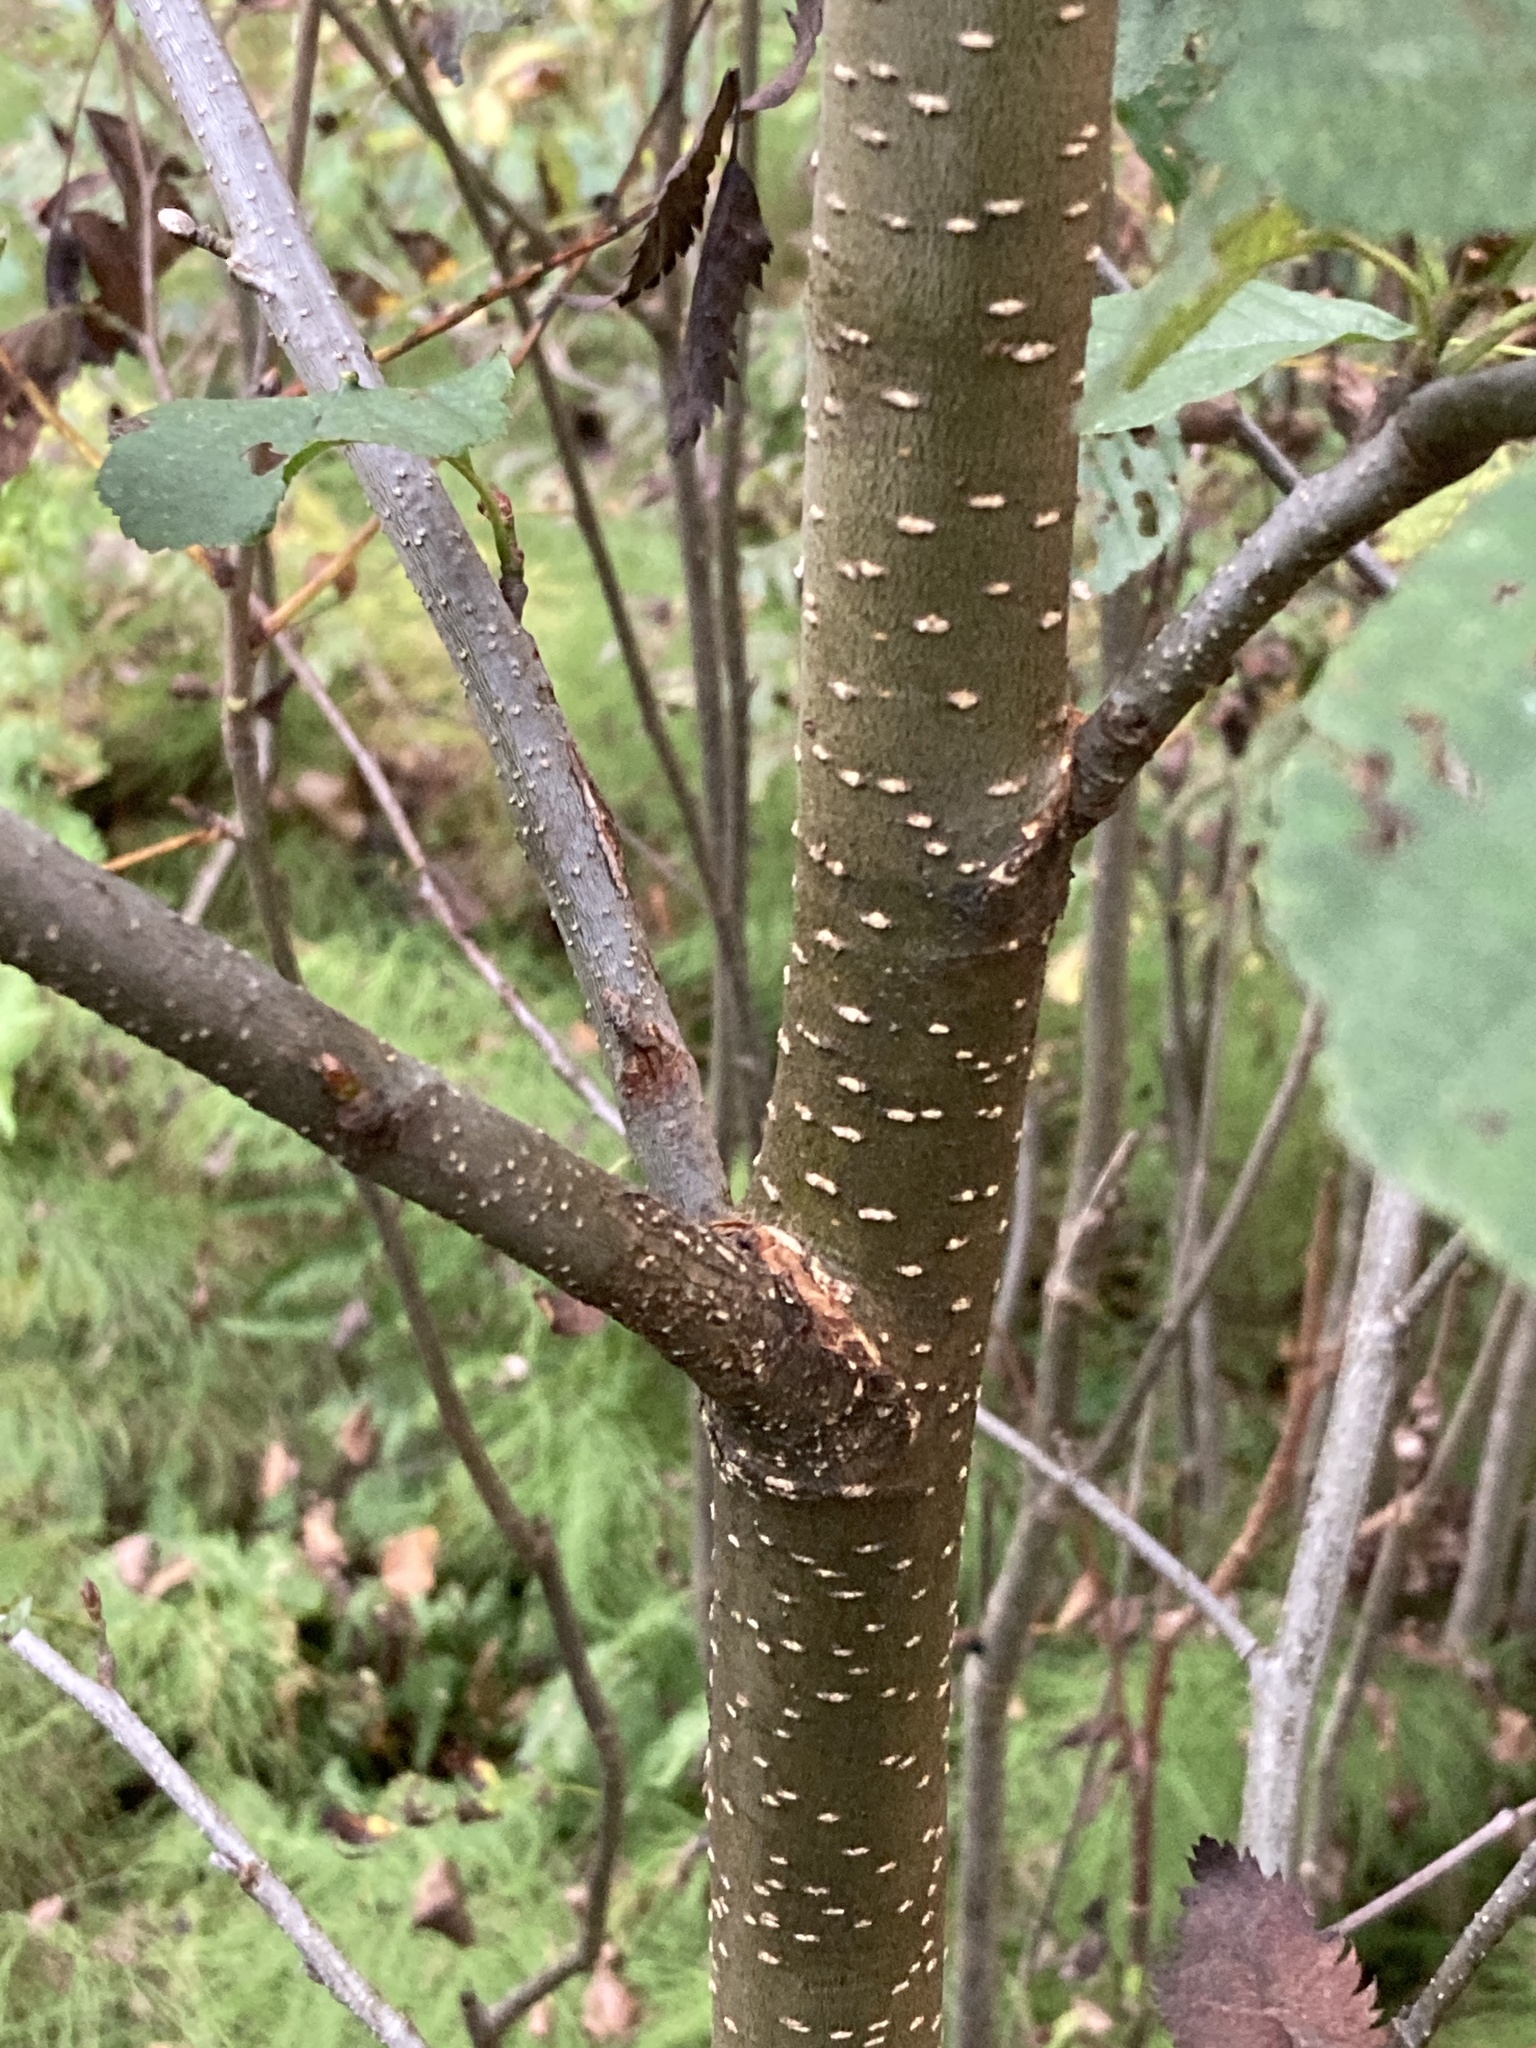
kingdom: Plantae
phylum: Tracheophyta
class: Magnoliopsida
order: Fagales
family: Betulaceae
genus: Alnus
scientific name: Alnus glutinosa
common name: Black alder
